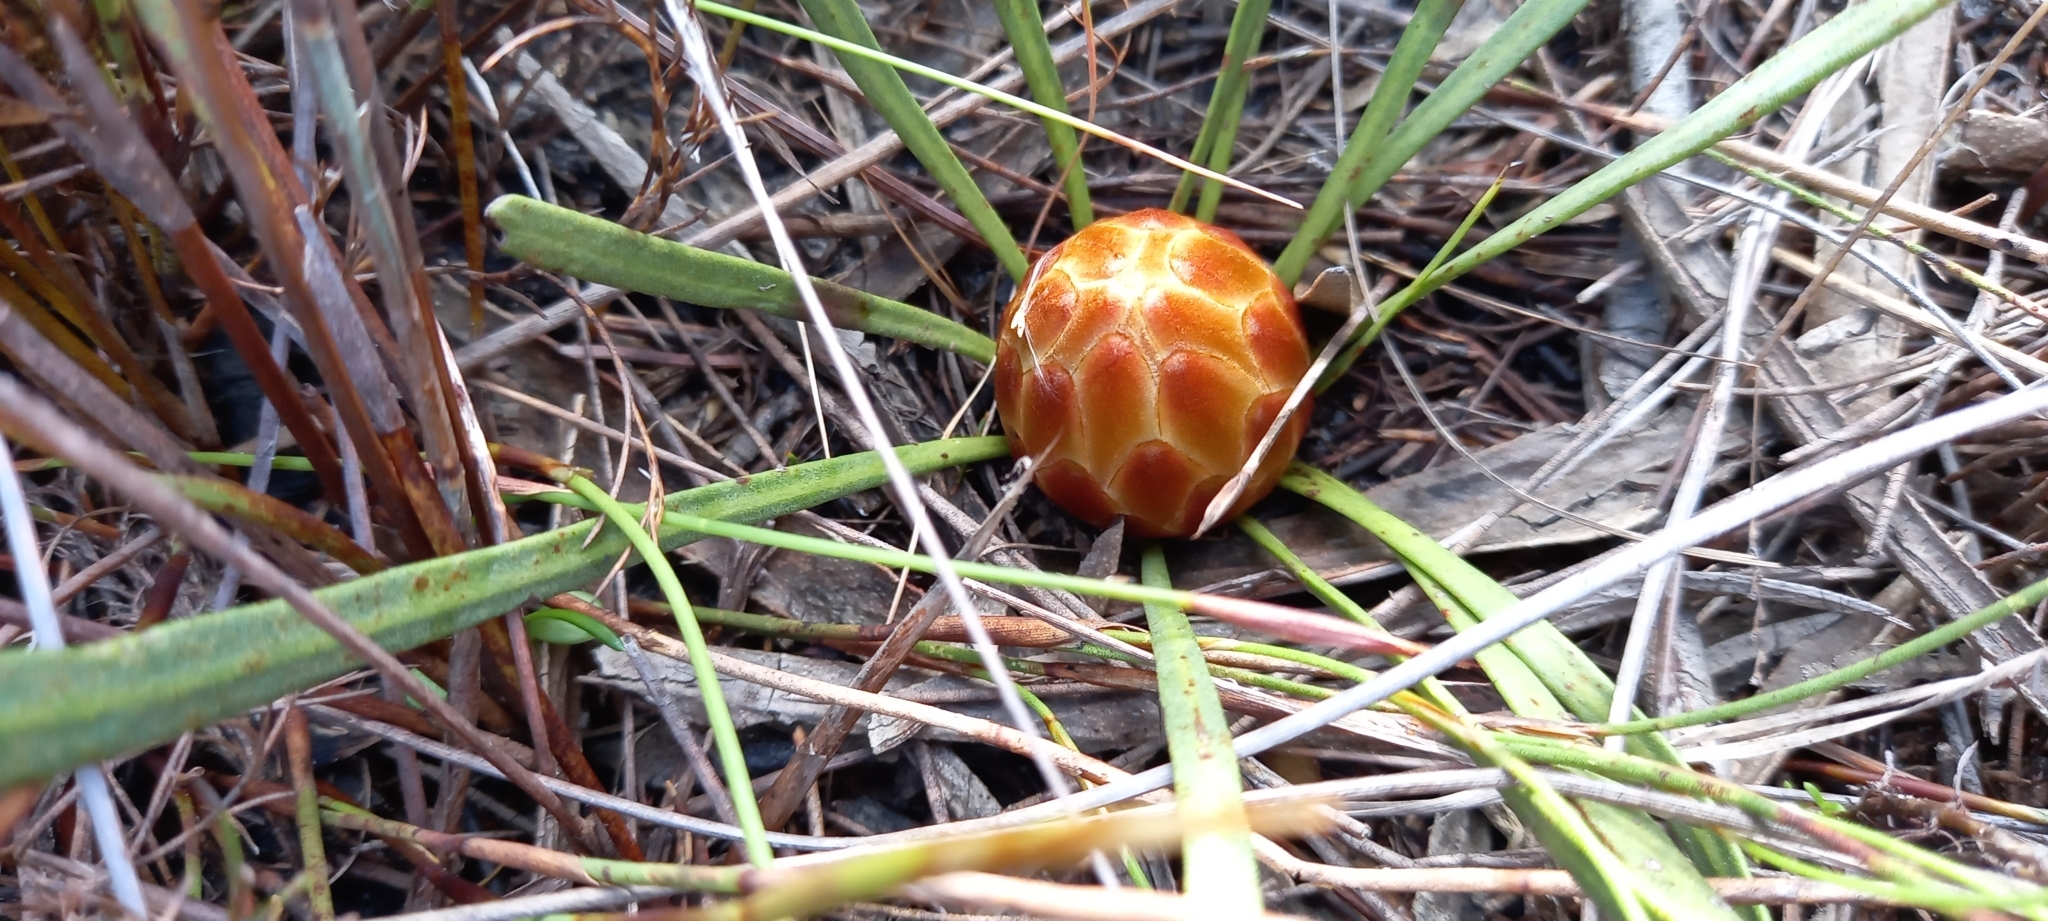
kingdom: Plantae
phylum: Tracheophyta
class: Magnoliopsida
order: Proteales
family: Proteaceae
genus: Protea
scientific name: Protea scabra
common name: Sandpaper-leaf sugarbush
